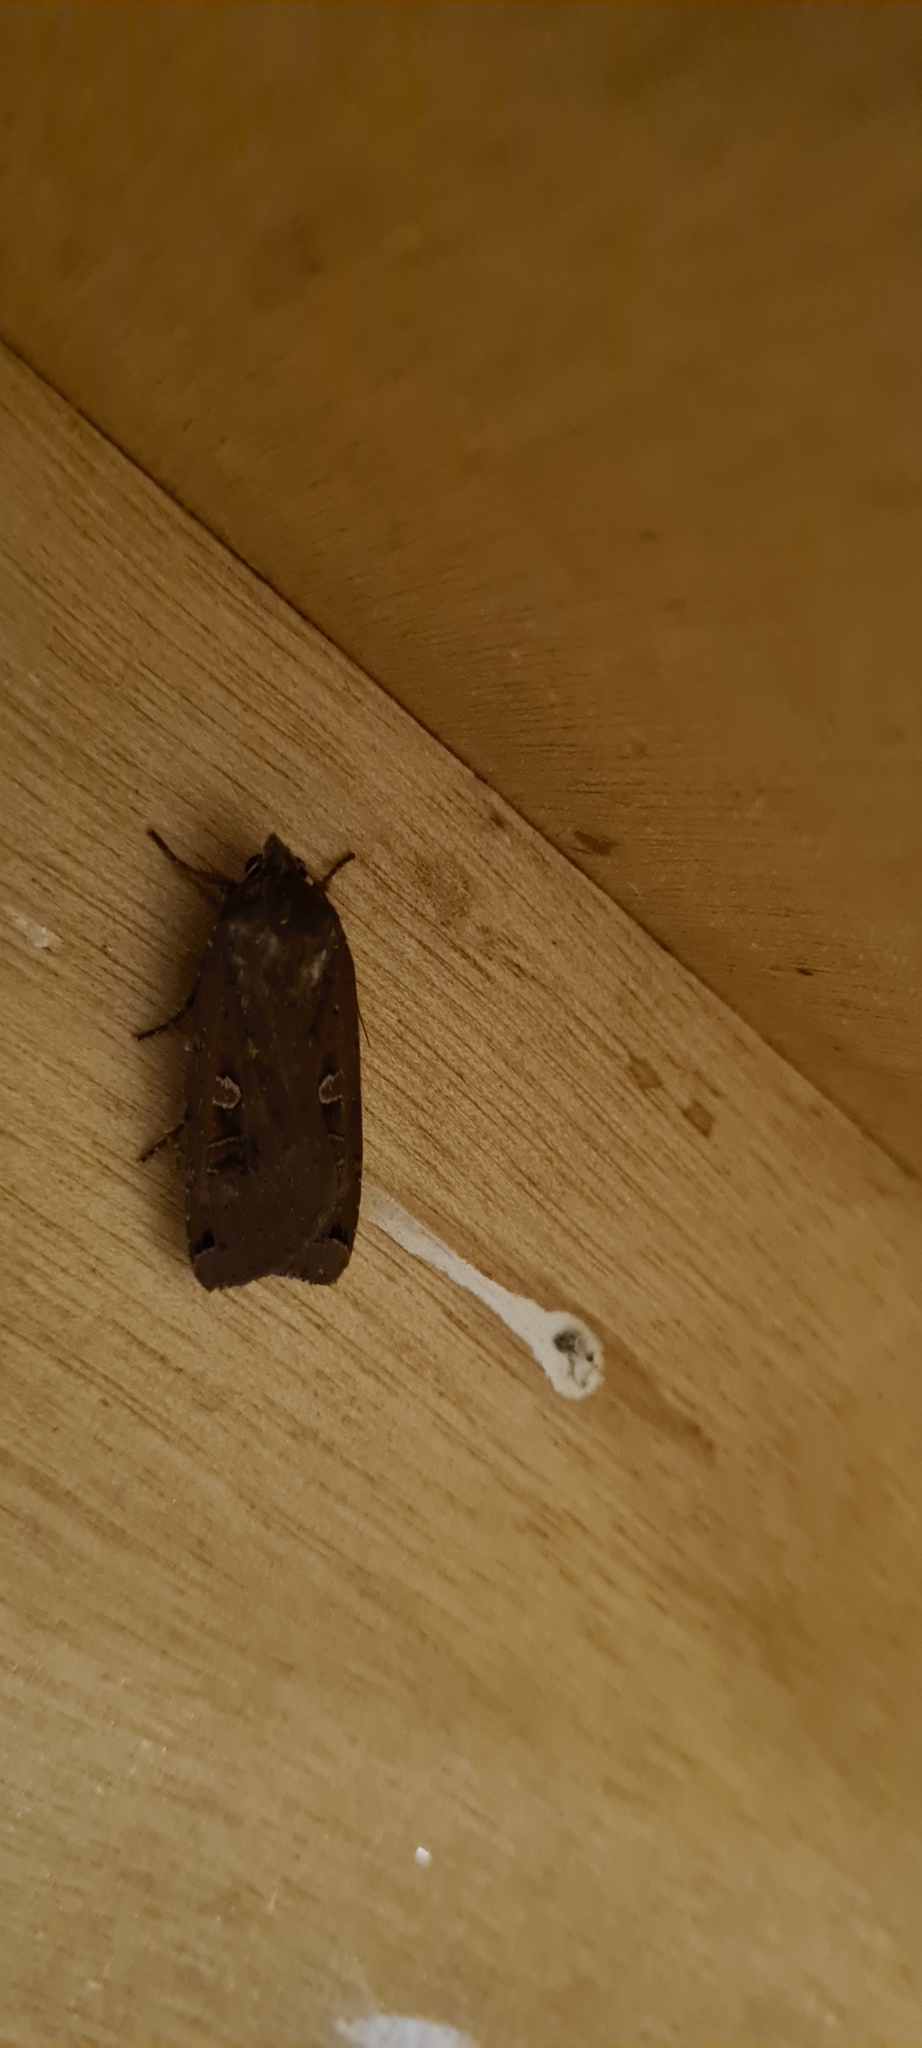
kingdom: Animalia
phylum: Arthropoda
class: Insecta
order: Lepidoptera
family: Noctuidae
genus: Noctua
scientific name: Noctua pronuba
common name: Large yellow underwing
